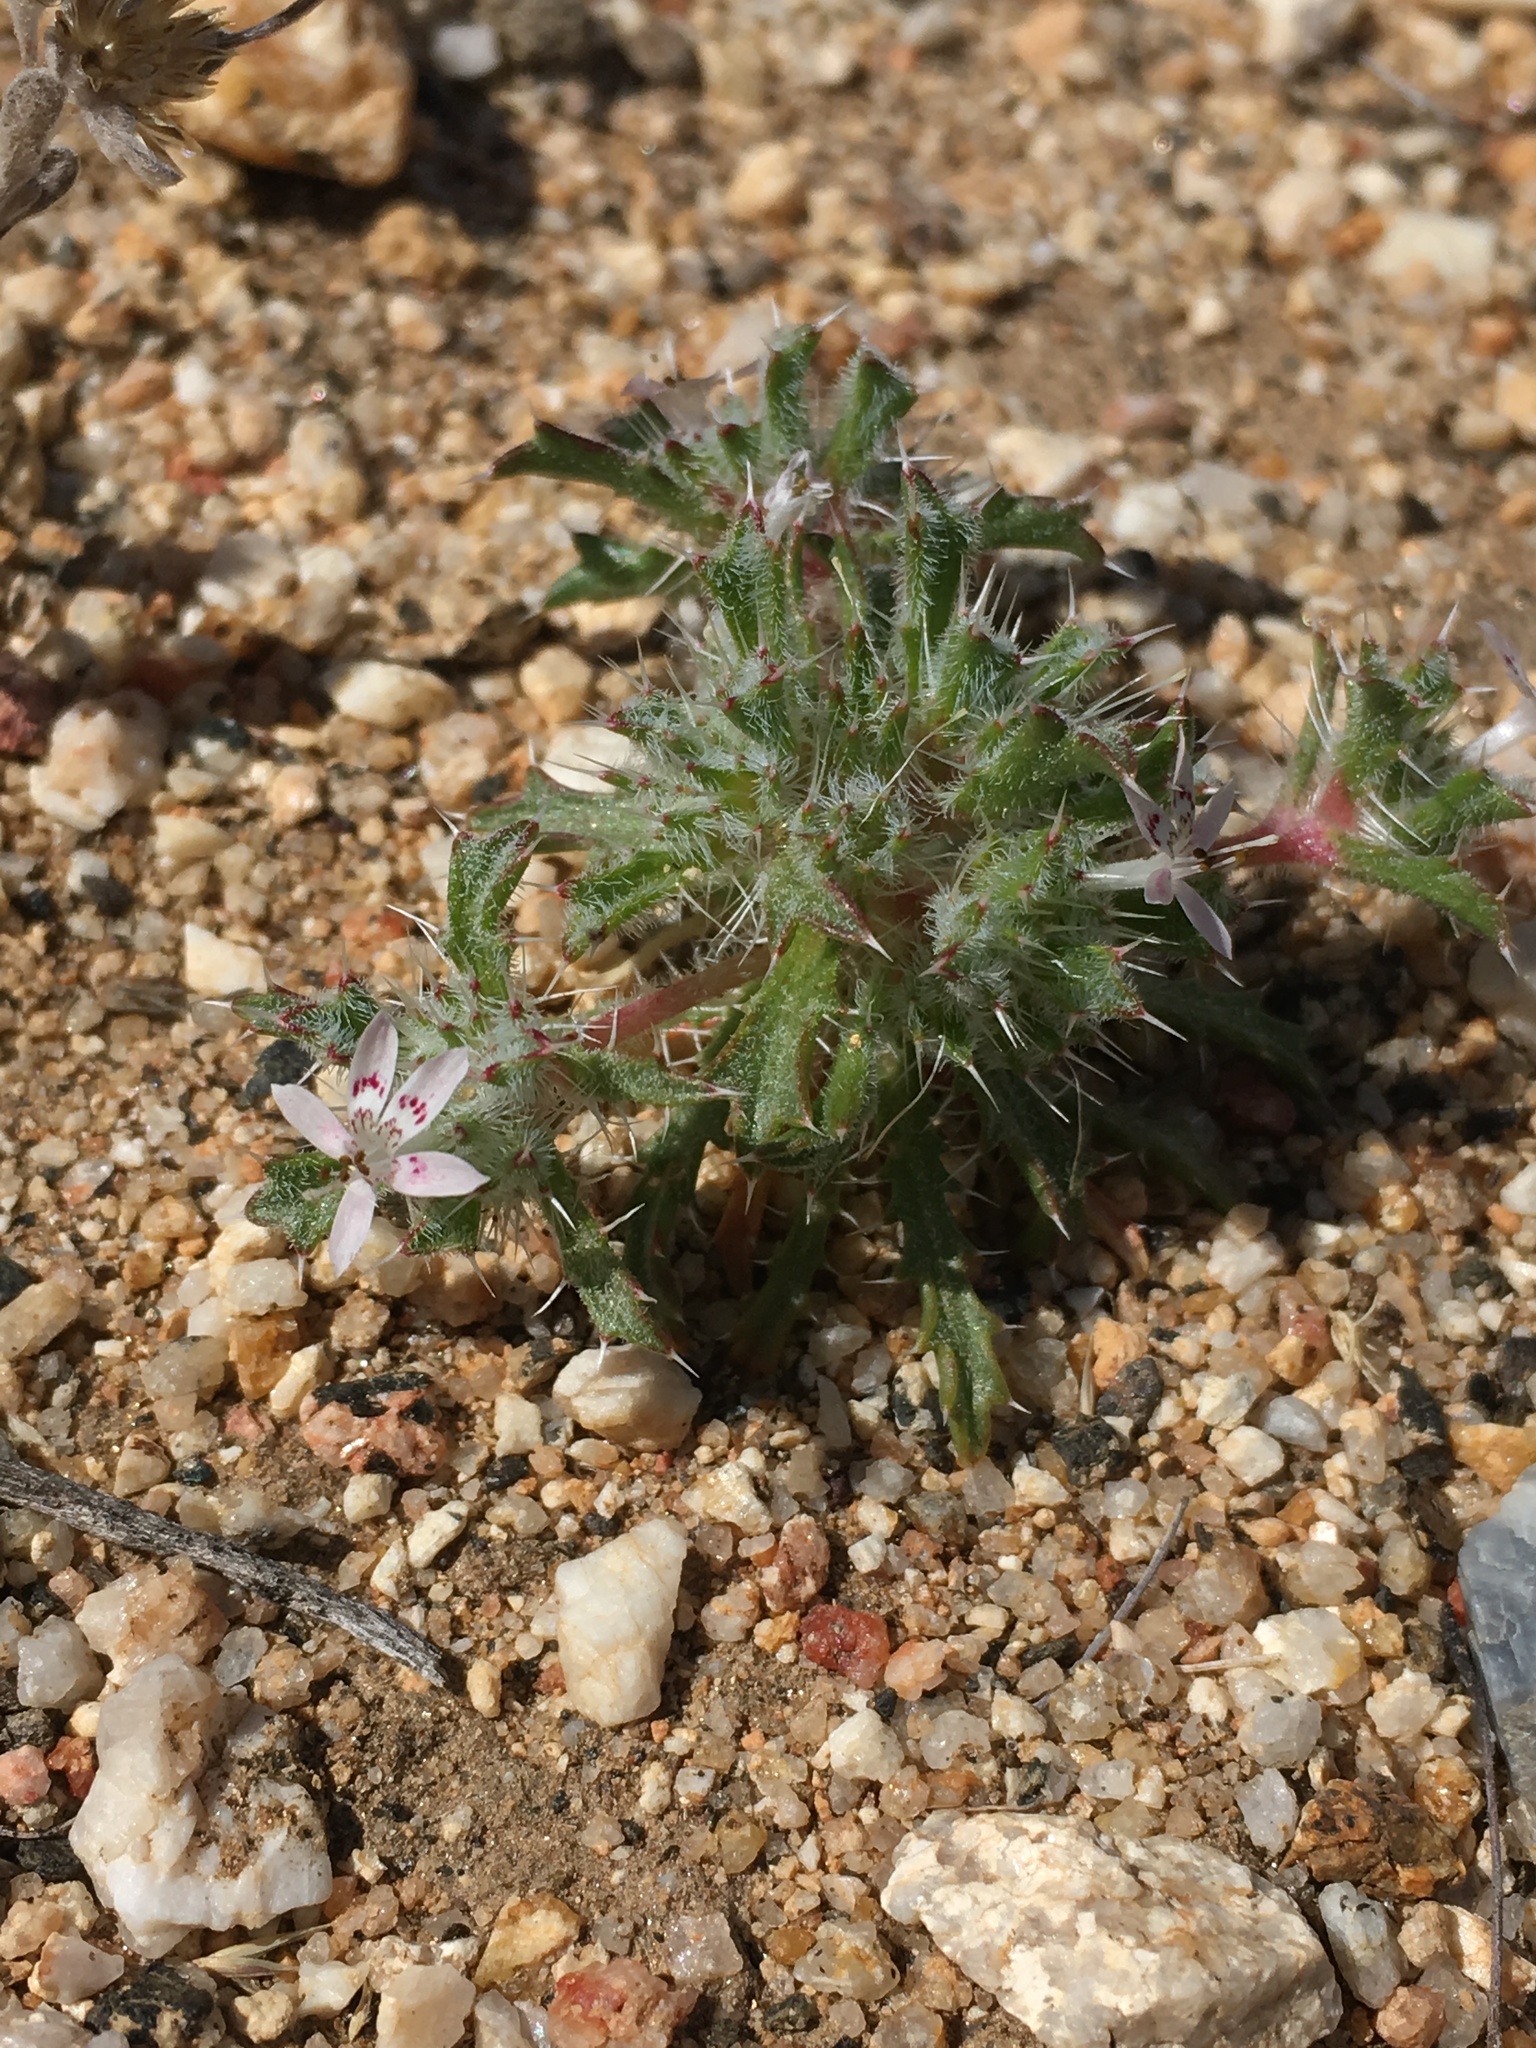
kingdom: Plantae
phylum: Tracheophyta
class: Magnoliopsida
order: Ericales
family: Polemoniaceae
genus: Loeseliastrum
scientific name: Loeseliastrum schottii
